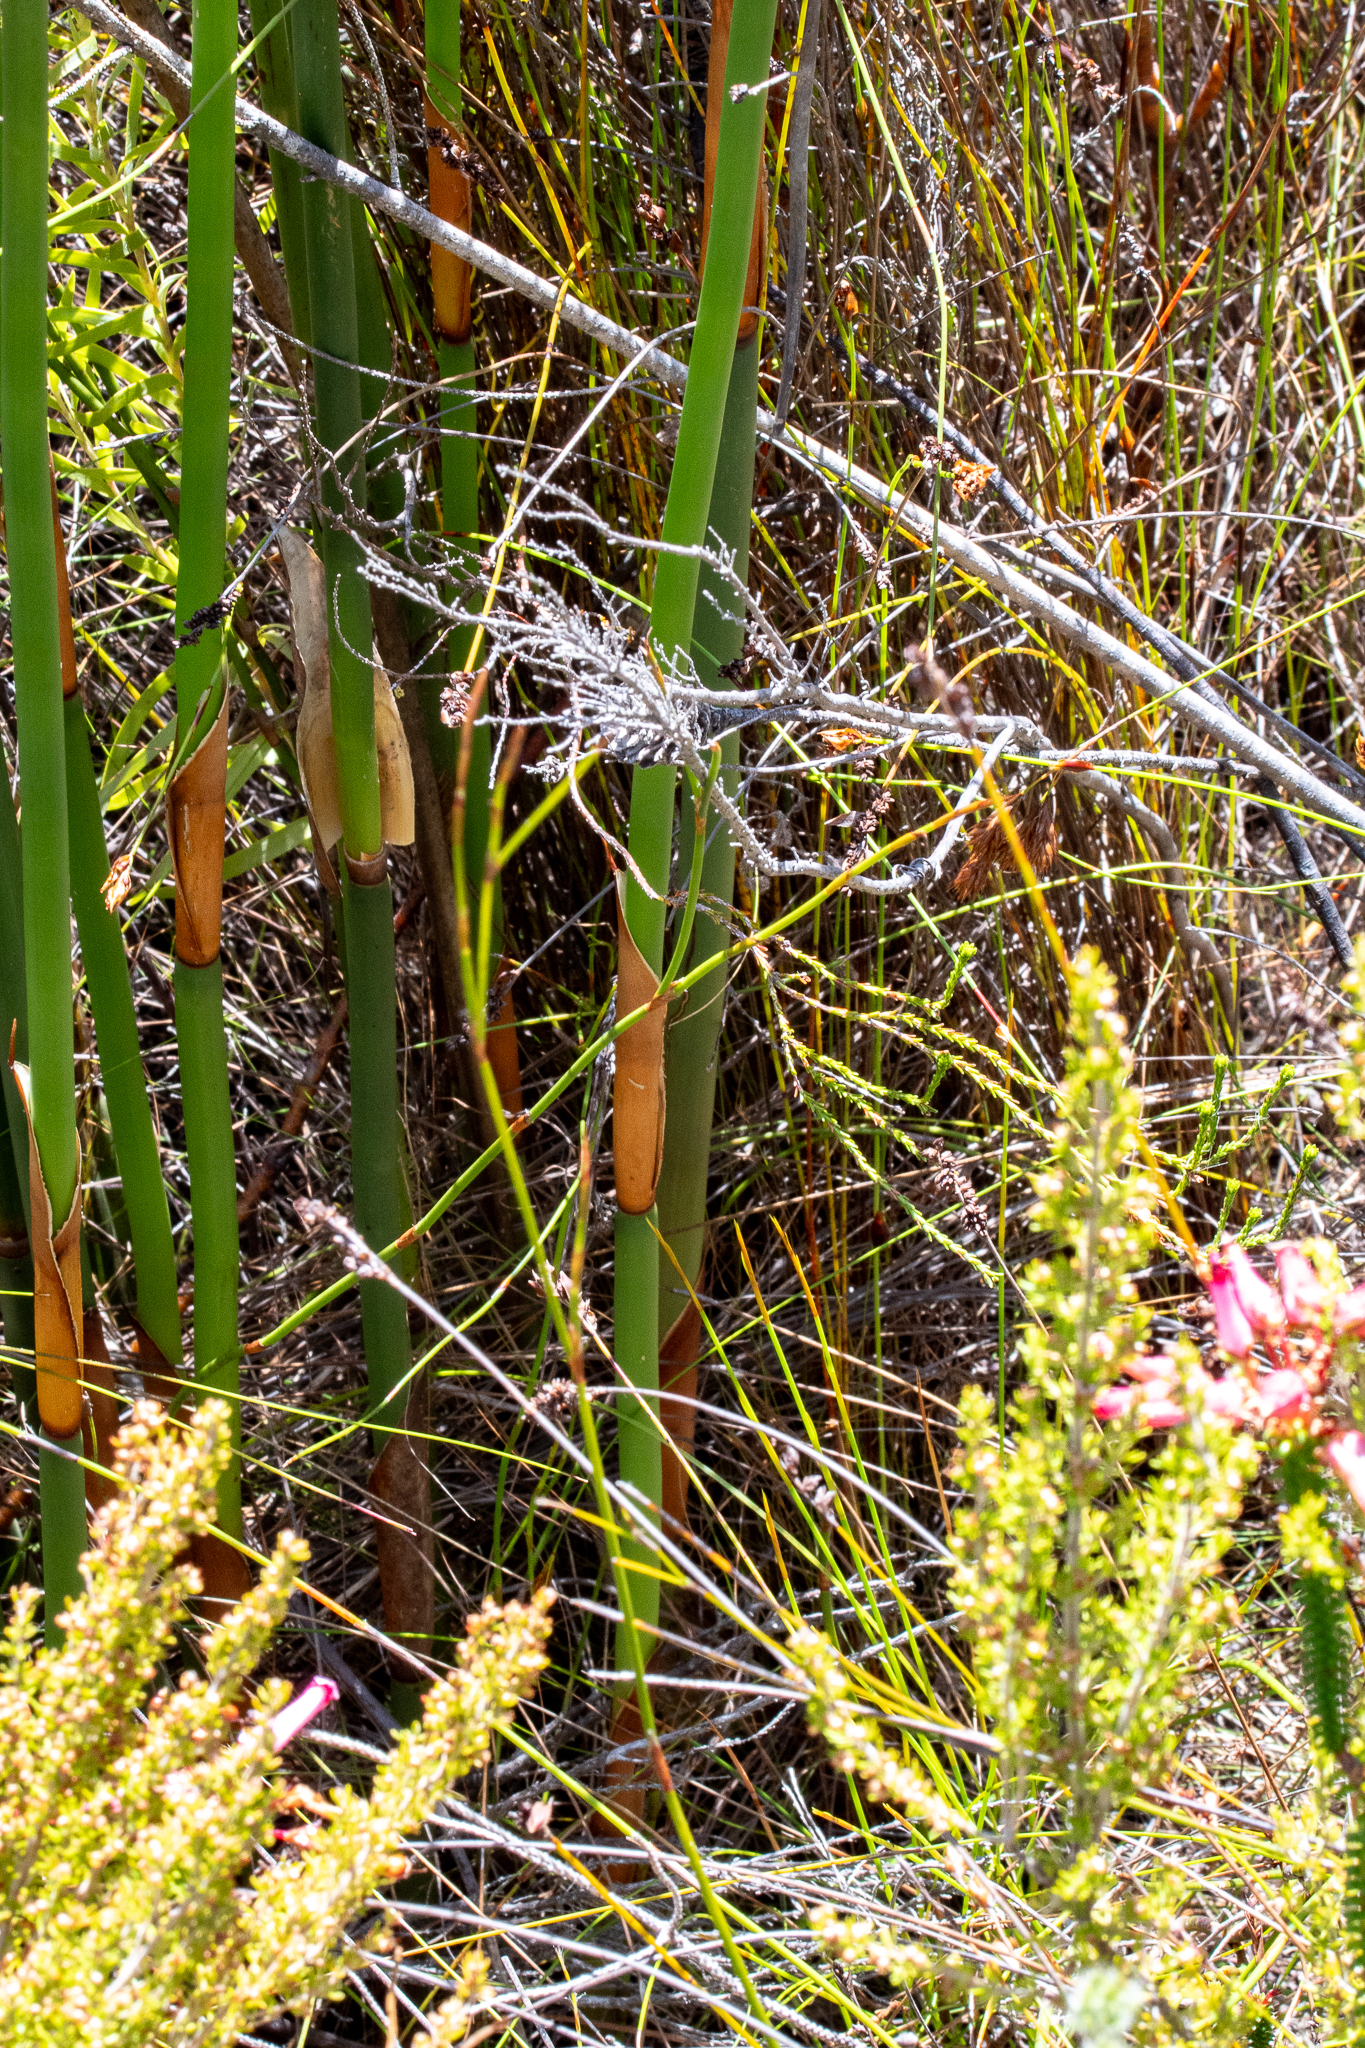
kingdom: Plantae
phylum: Tracheophyta
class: Liliopsida
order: Poales
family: Restionaceae
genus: Elegia
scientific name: Elegia mucronata
